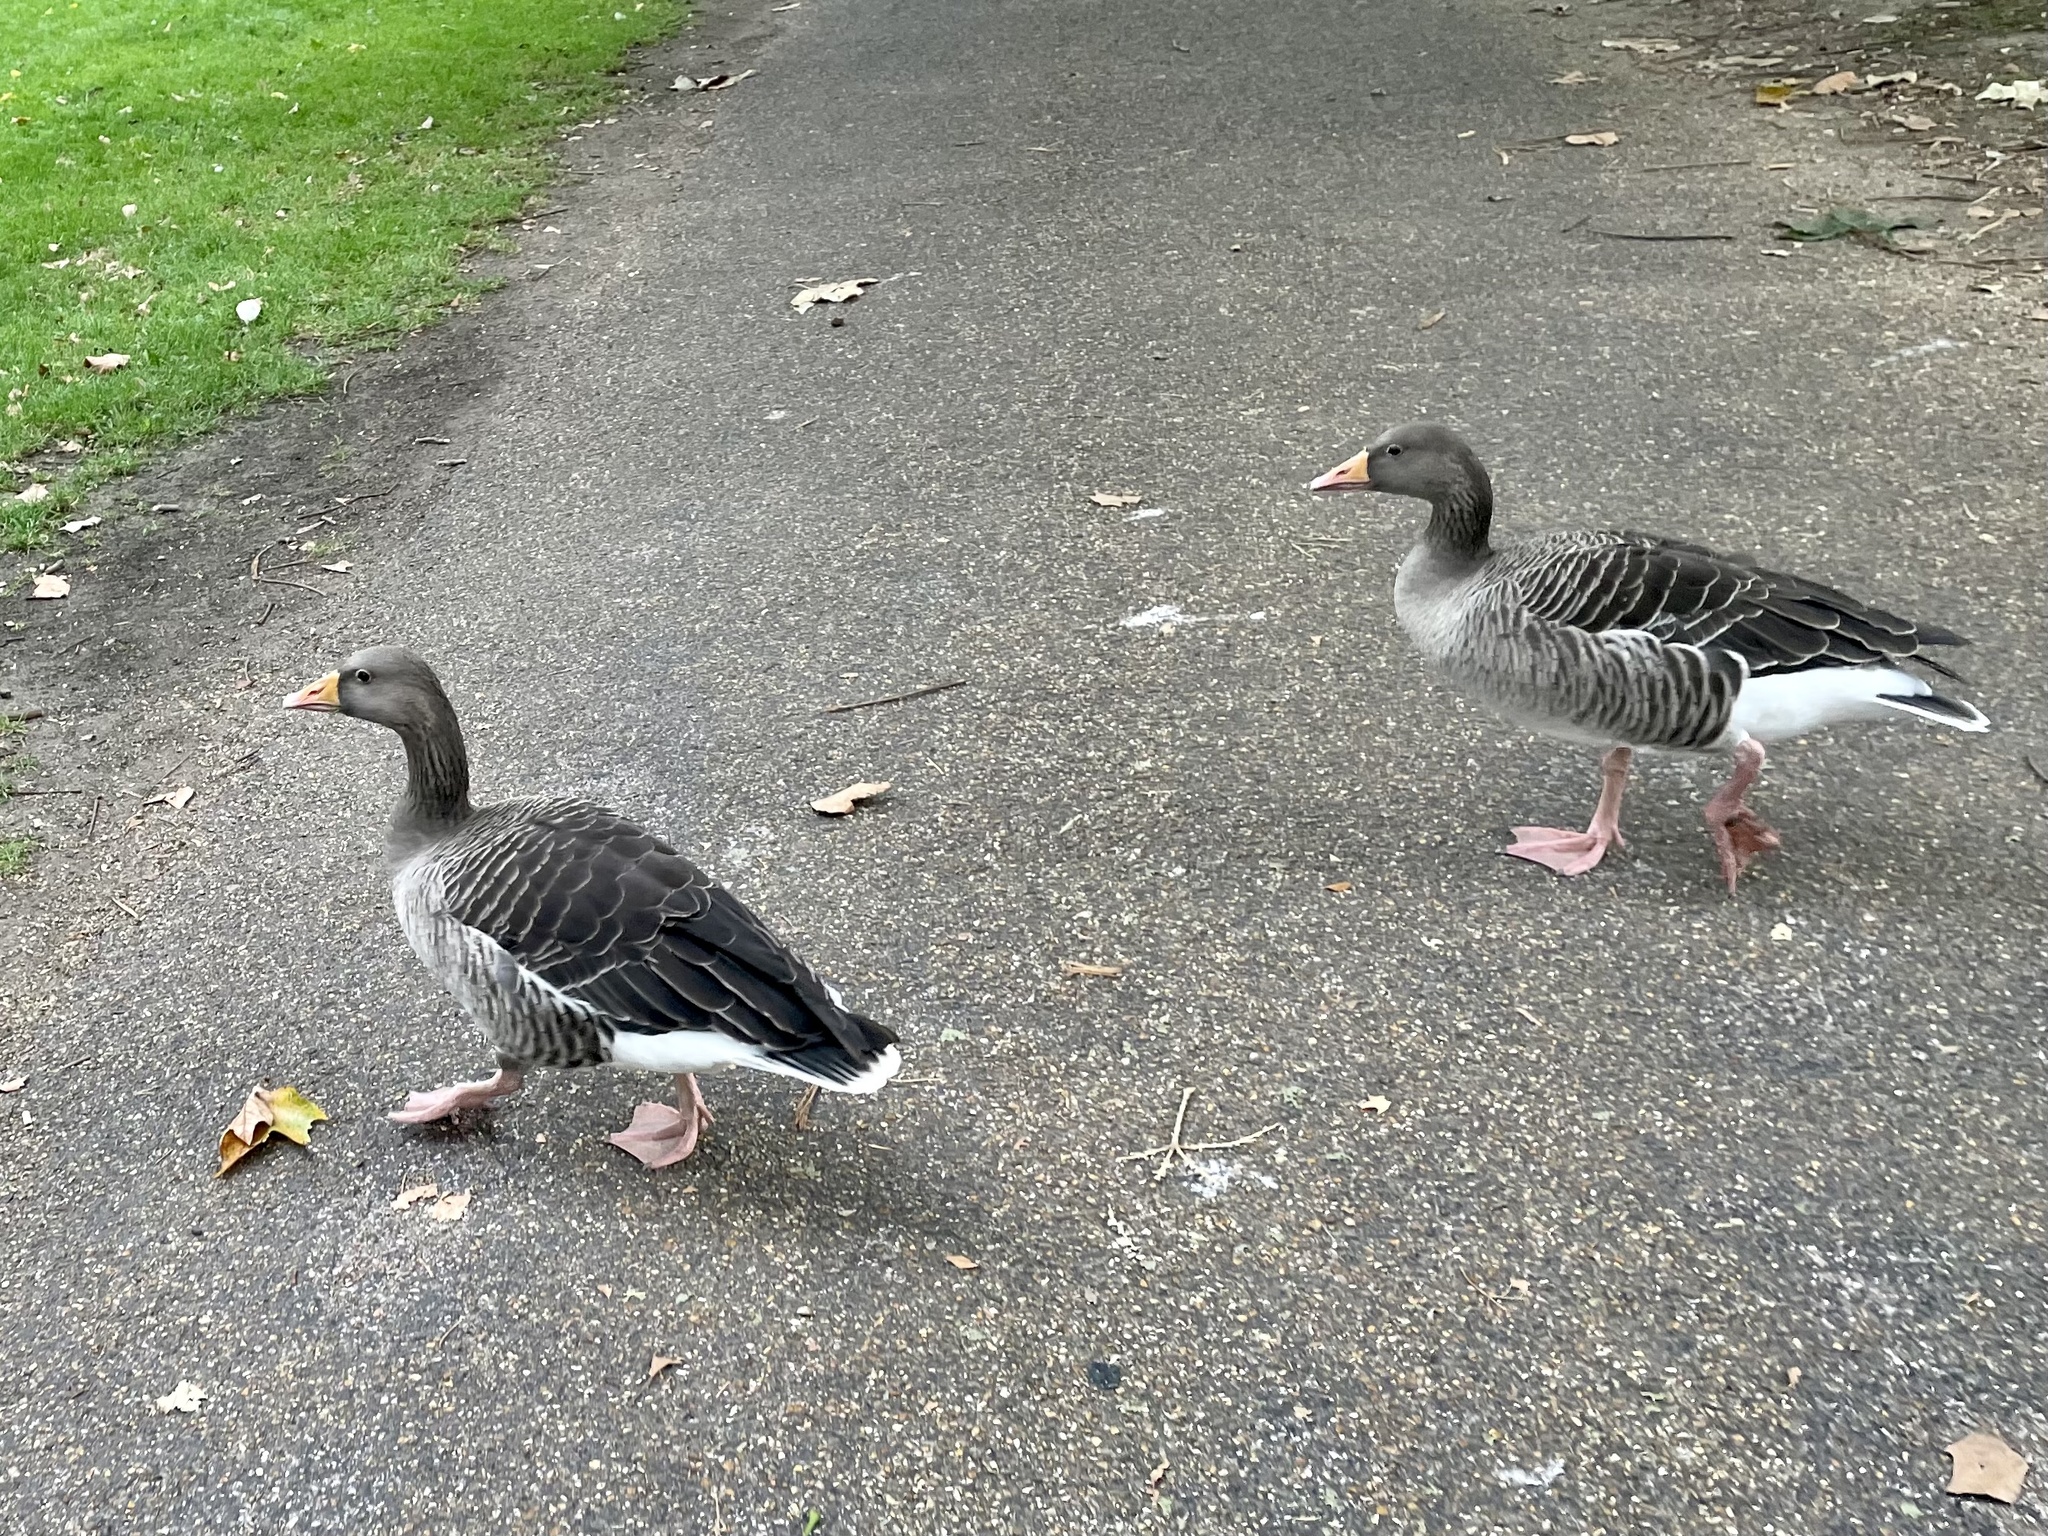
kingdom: Animalia
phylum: Chordata
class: Aves
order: Anseriformes
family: Anatidae
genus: Anser
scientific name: Anser anser
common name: Greylag goose
